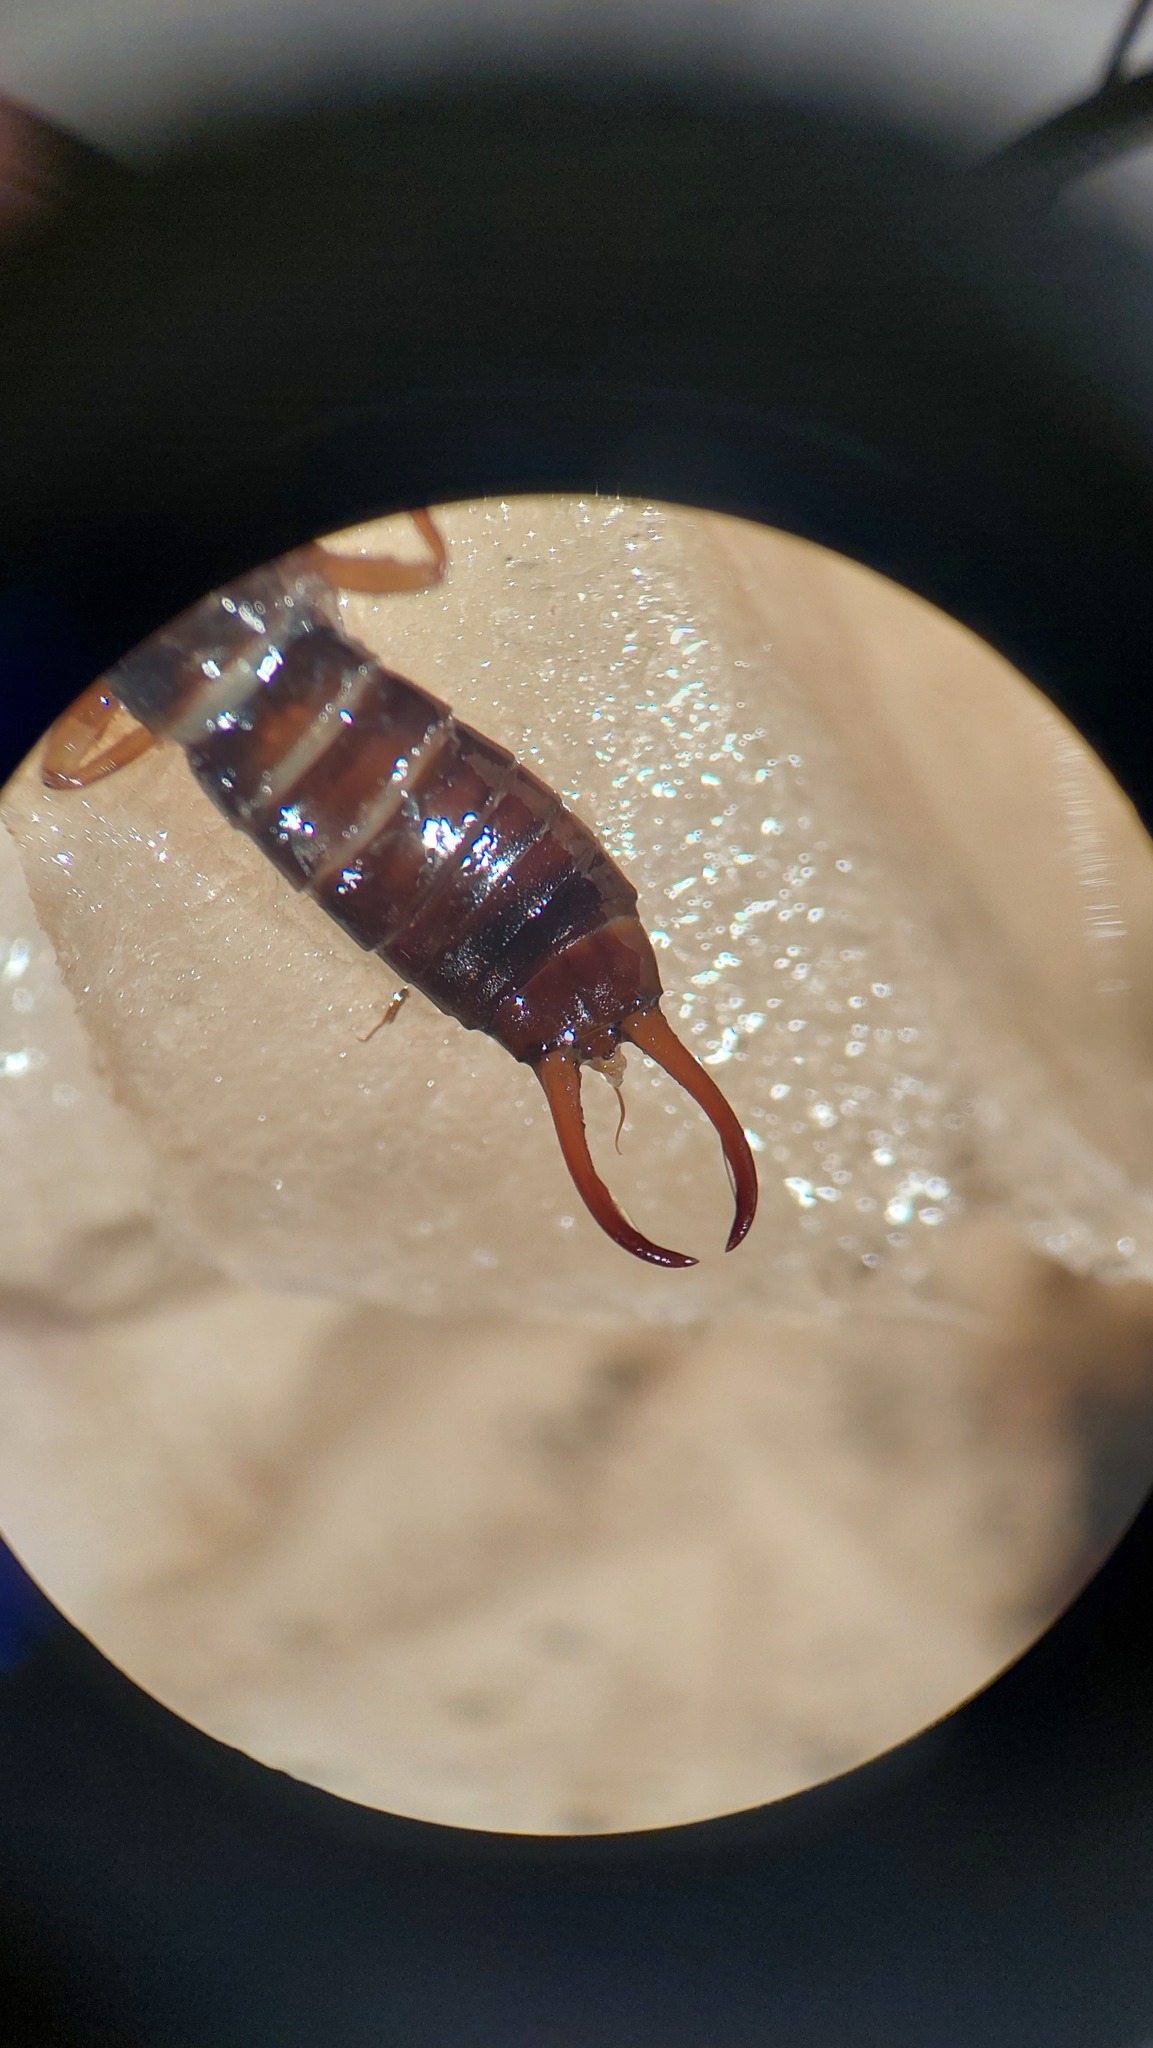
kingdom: Animalia
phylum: Arthropoda
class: Insecta
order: Dermaptera
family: Forficulidae
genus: Chelidurella
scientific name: Chelidurella acanthopygia
